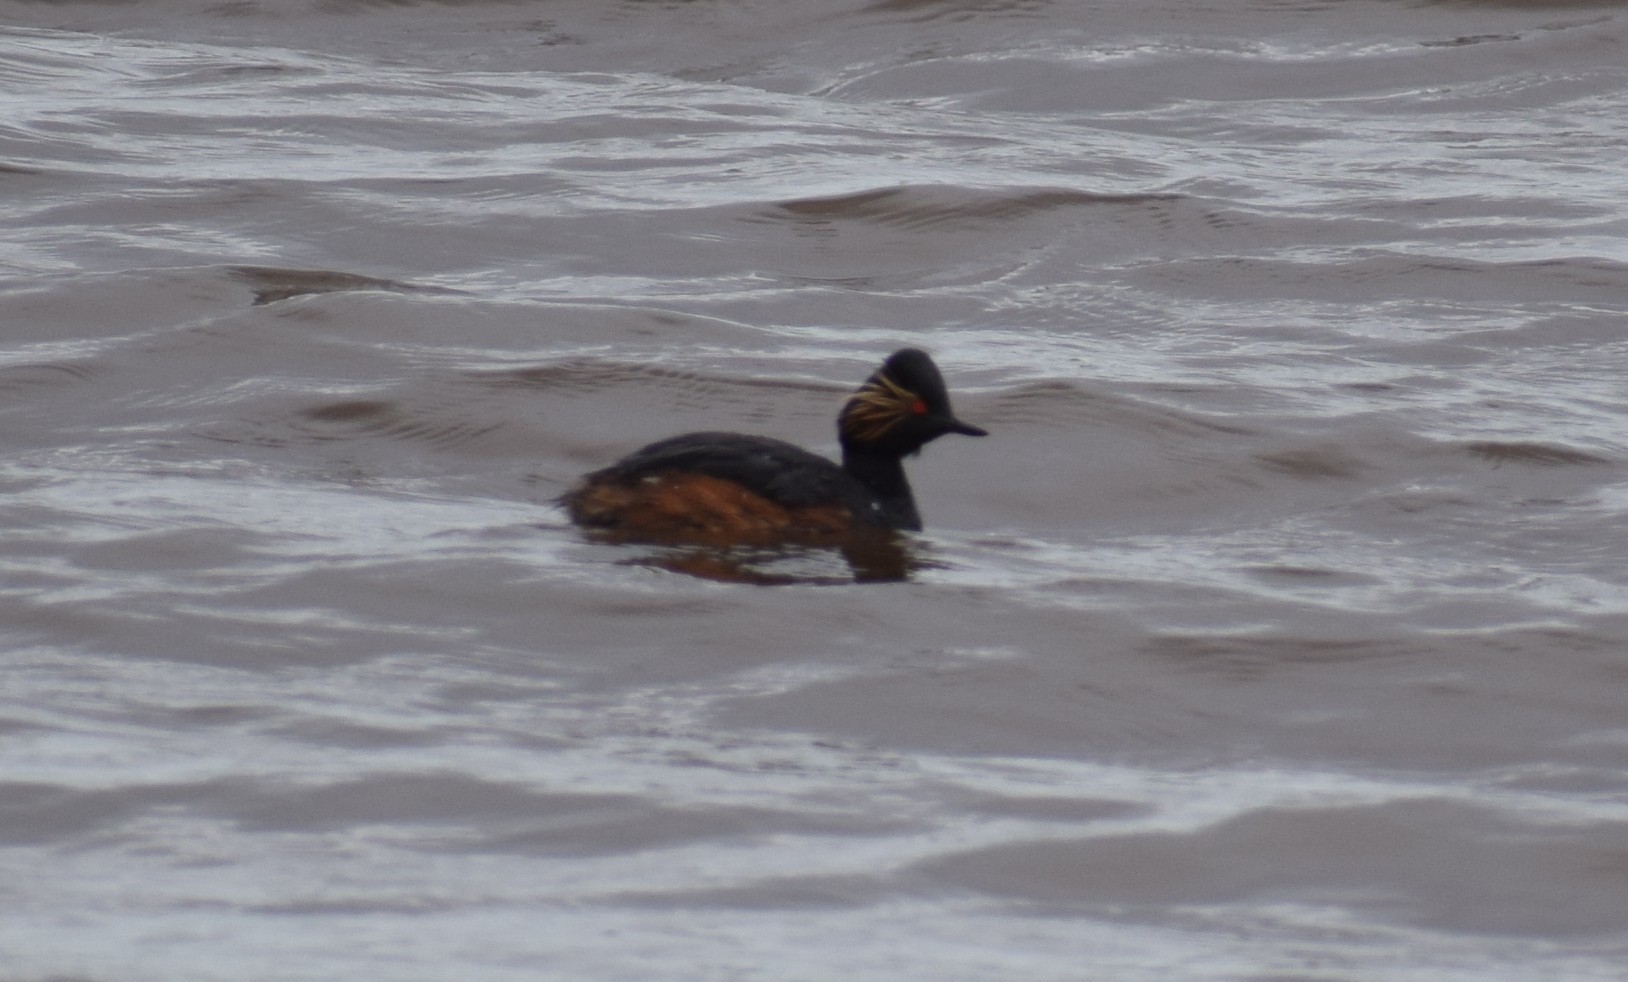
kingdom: Animalia
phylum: Chordata
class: Aves
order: Podicipediformes
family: Podicipedidae
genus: Podiceps
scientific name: Podiceps nigricollis
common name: Black-necked grebe
